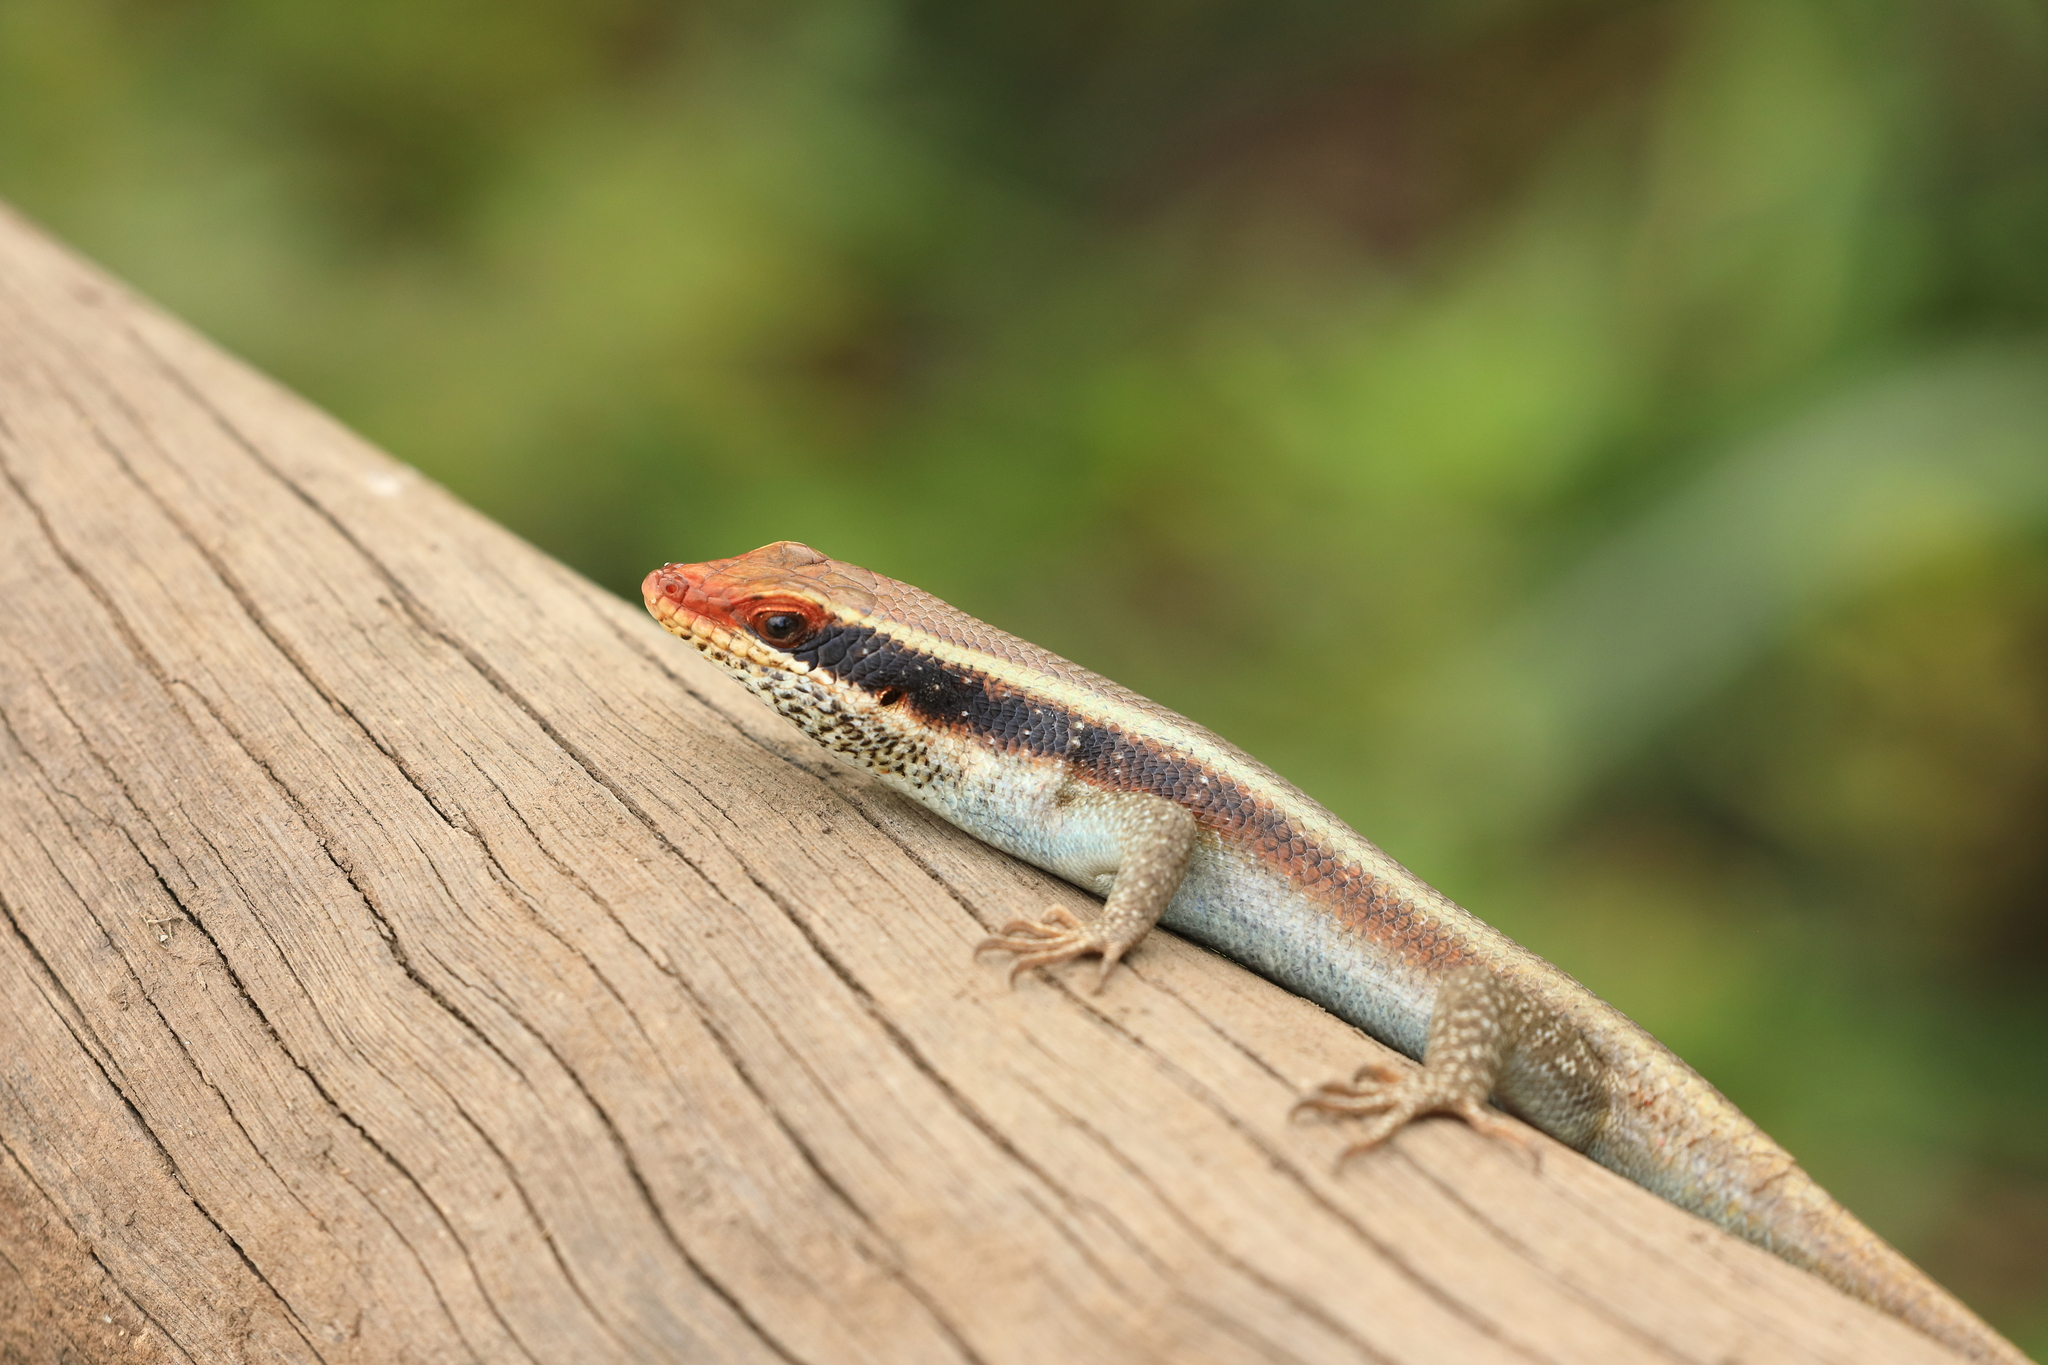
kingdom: Animalia
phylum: Chordata
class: Squamata
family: Scincidae
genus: Trachylepis
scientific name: Trachylepis wahlbergii
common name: Wahlberg’s striped skink
